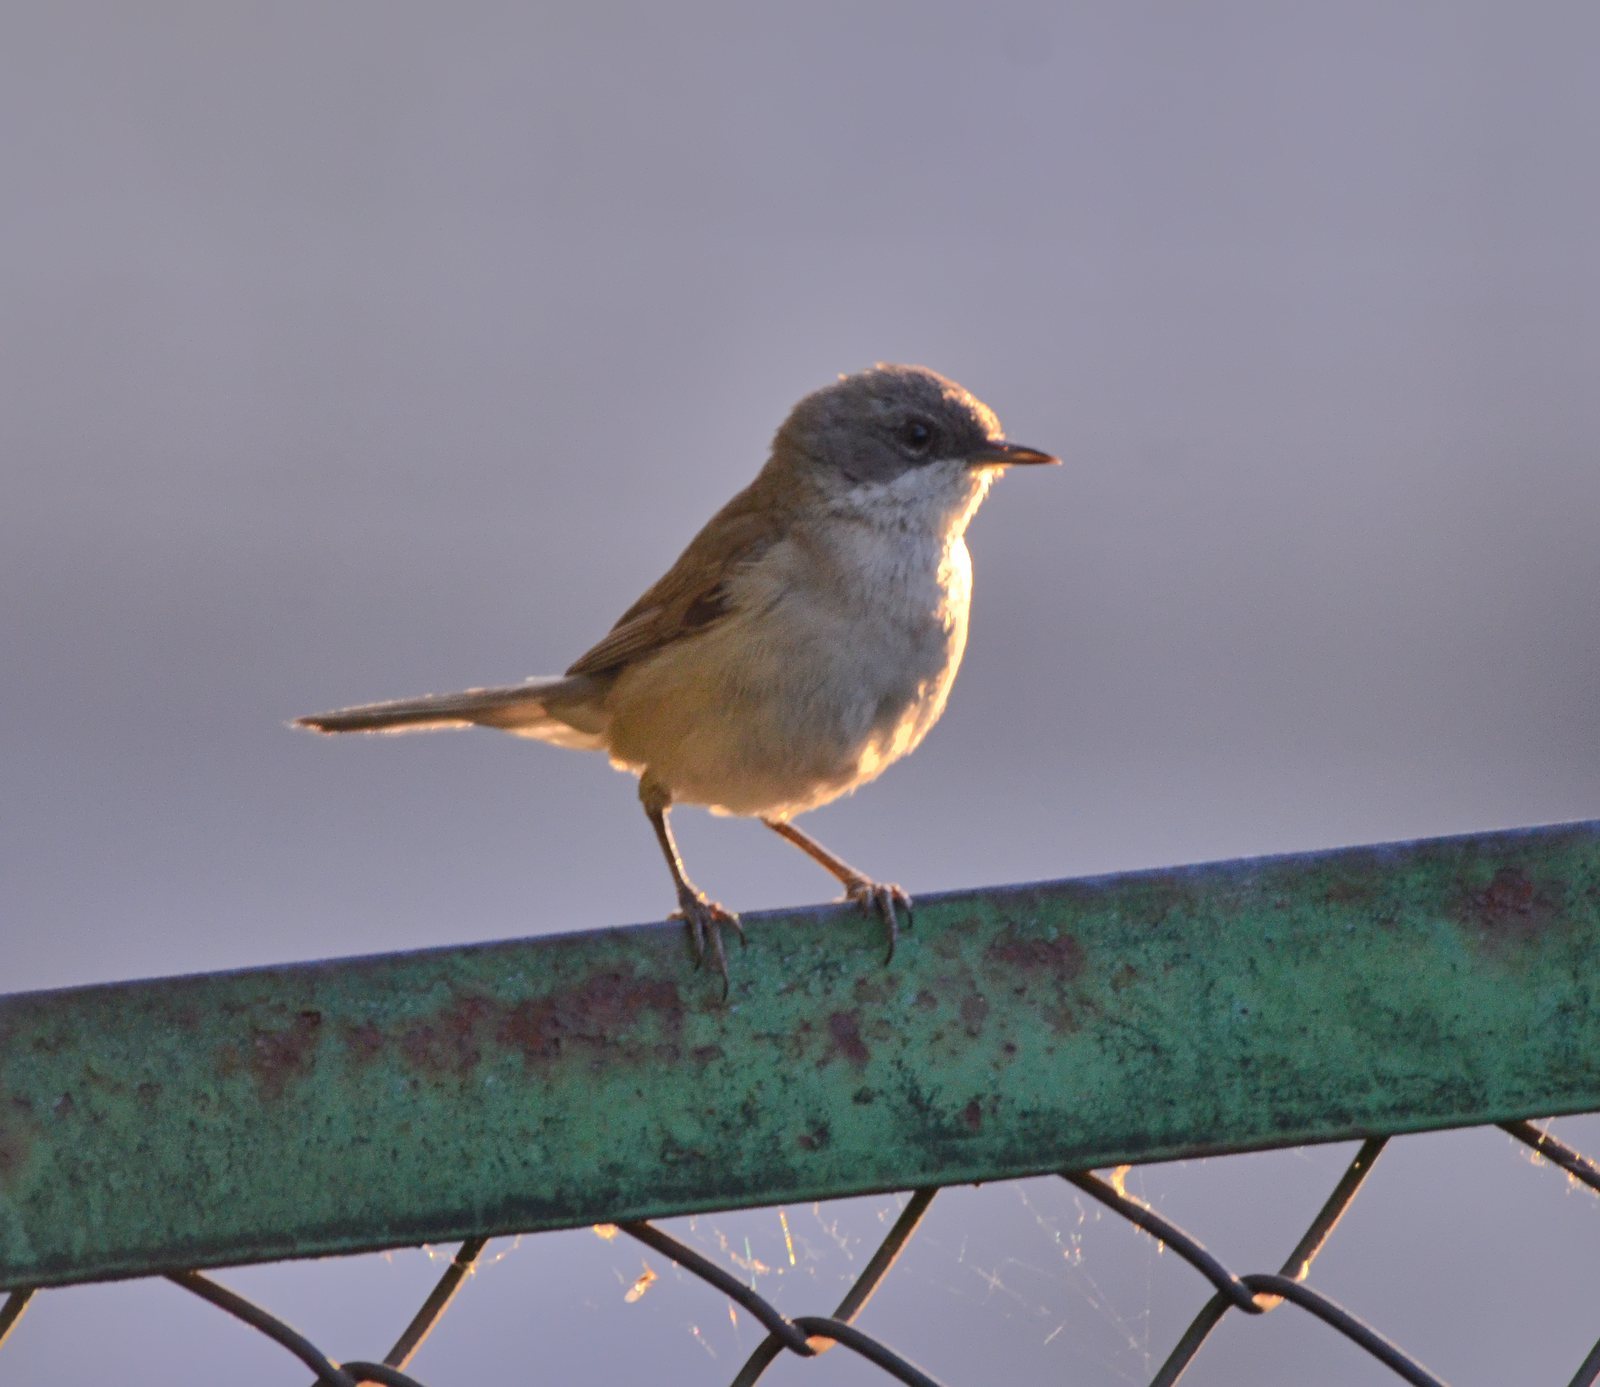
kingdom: Animalia
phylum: Chordata
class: Aves
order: Passeriformes
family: Sylviidae
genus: Sylvia
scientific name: Sylvia curruca
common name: Lesser whitethroat
